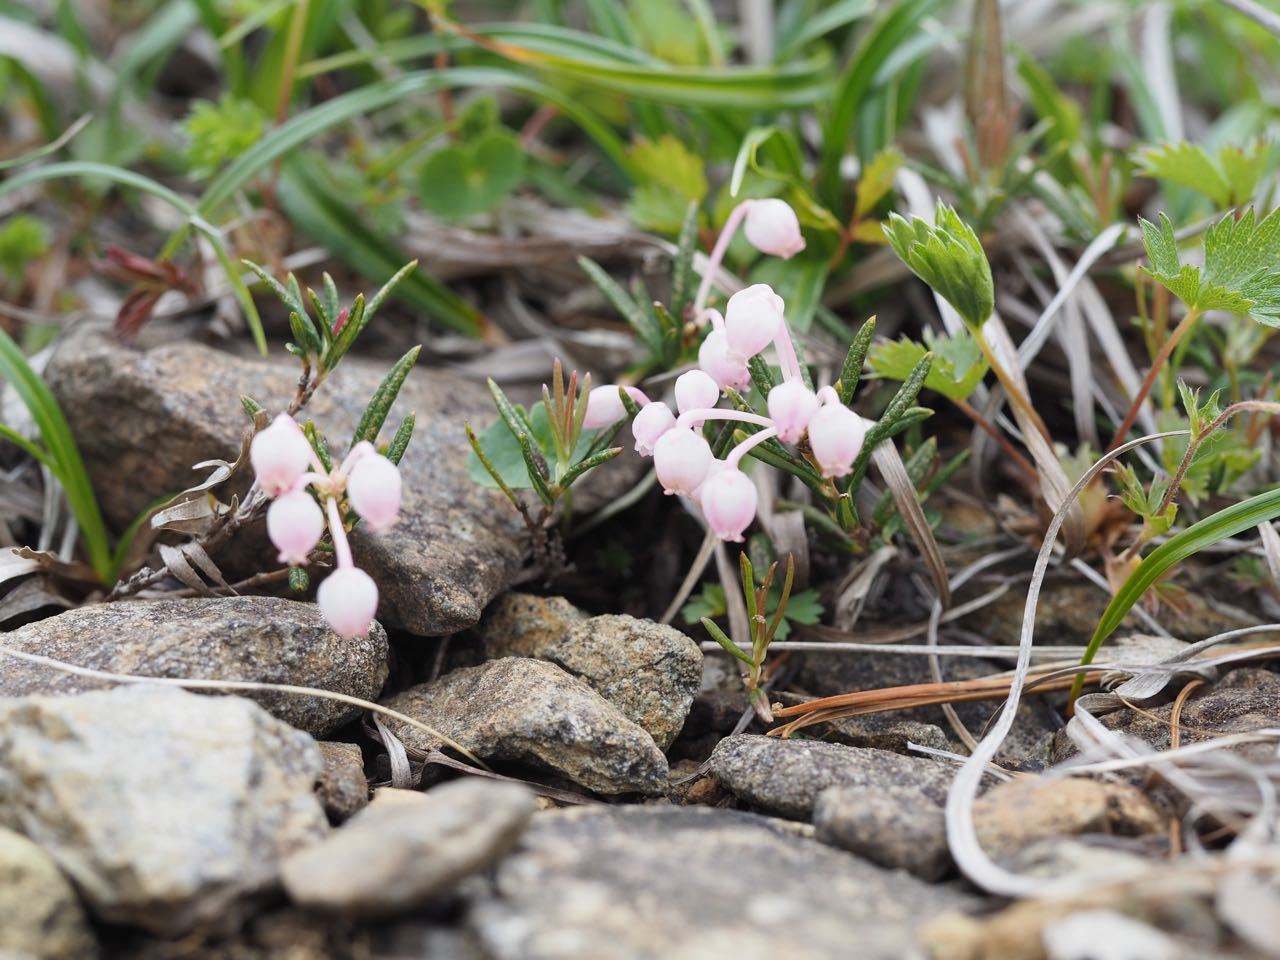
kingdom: Plantae
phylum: Tracheophyta
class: Magnoliopsida
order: Ericales
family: Ericaceae
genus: Andromeda
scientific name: Andromeda polifolia
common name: Bog-rosemary
